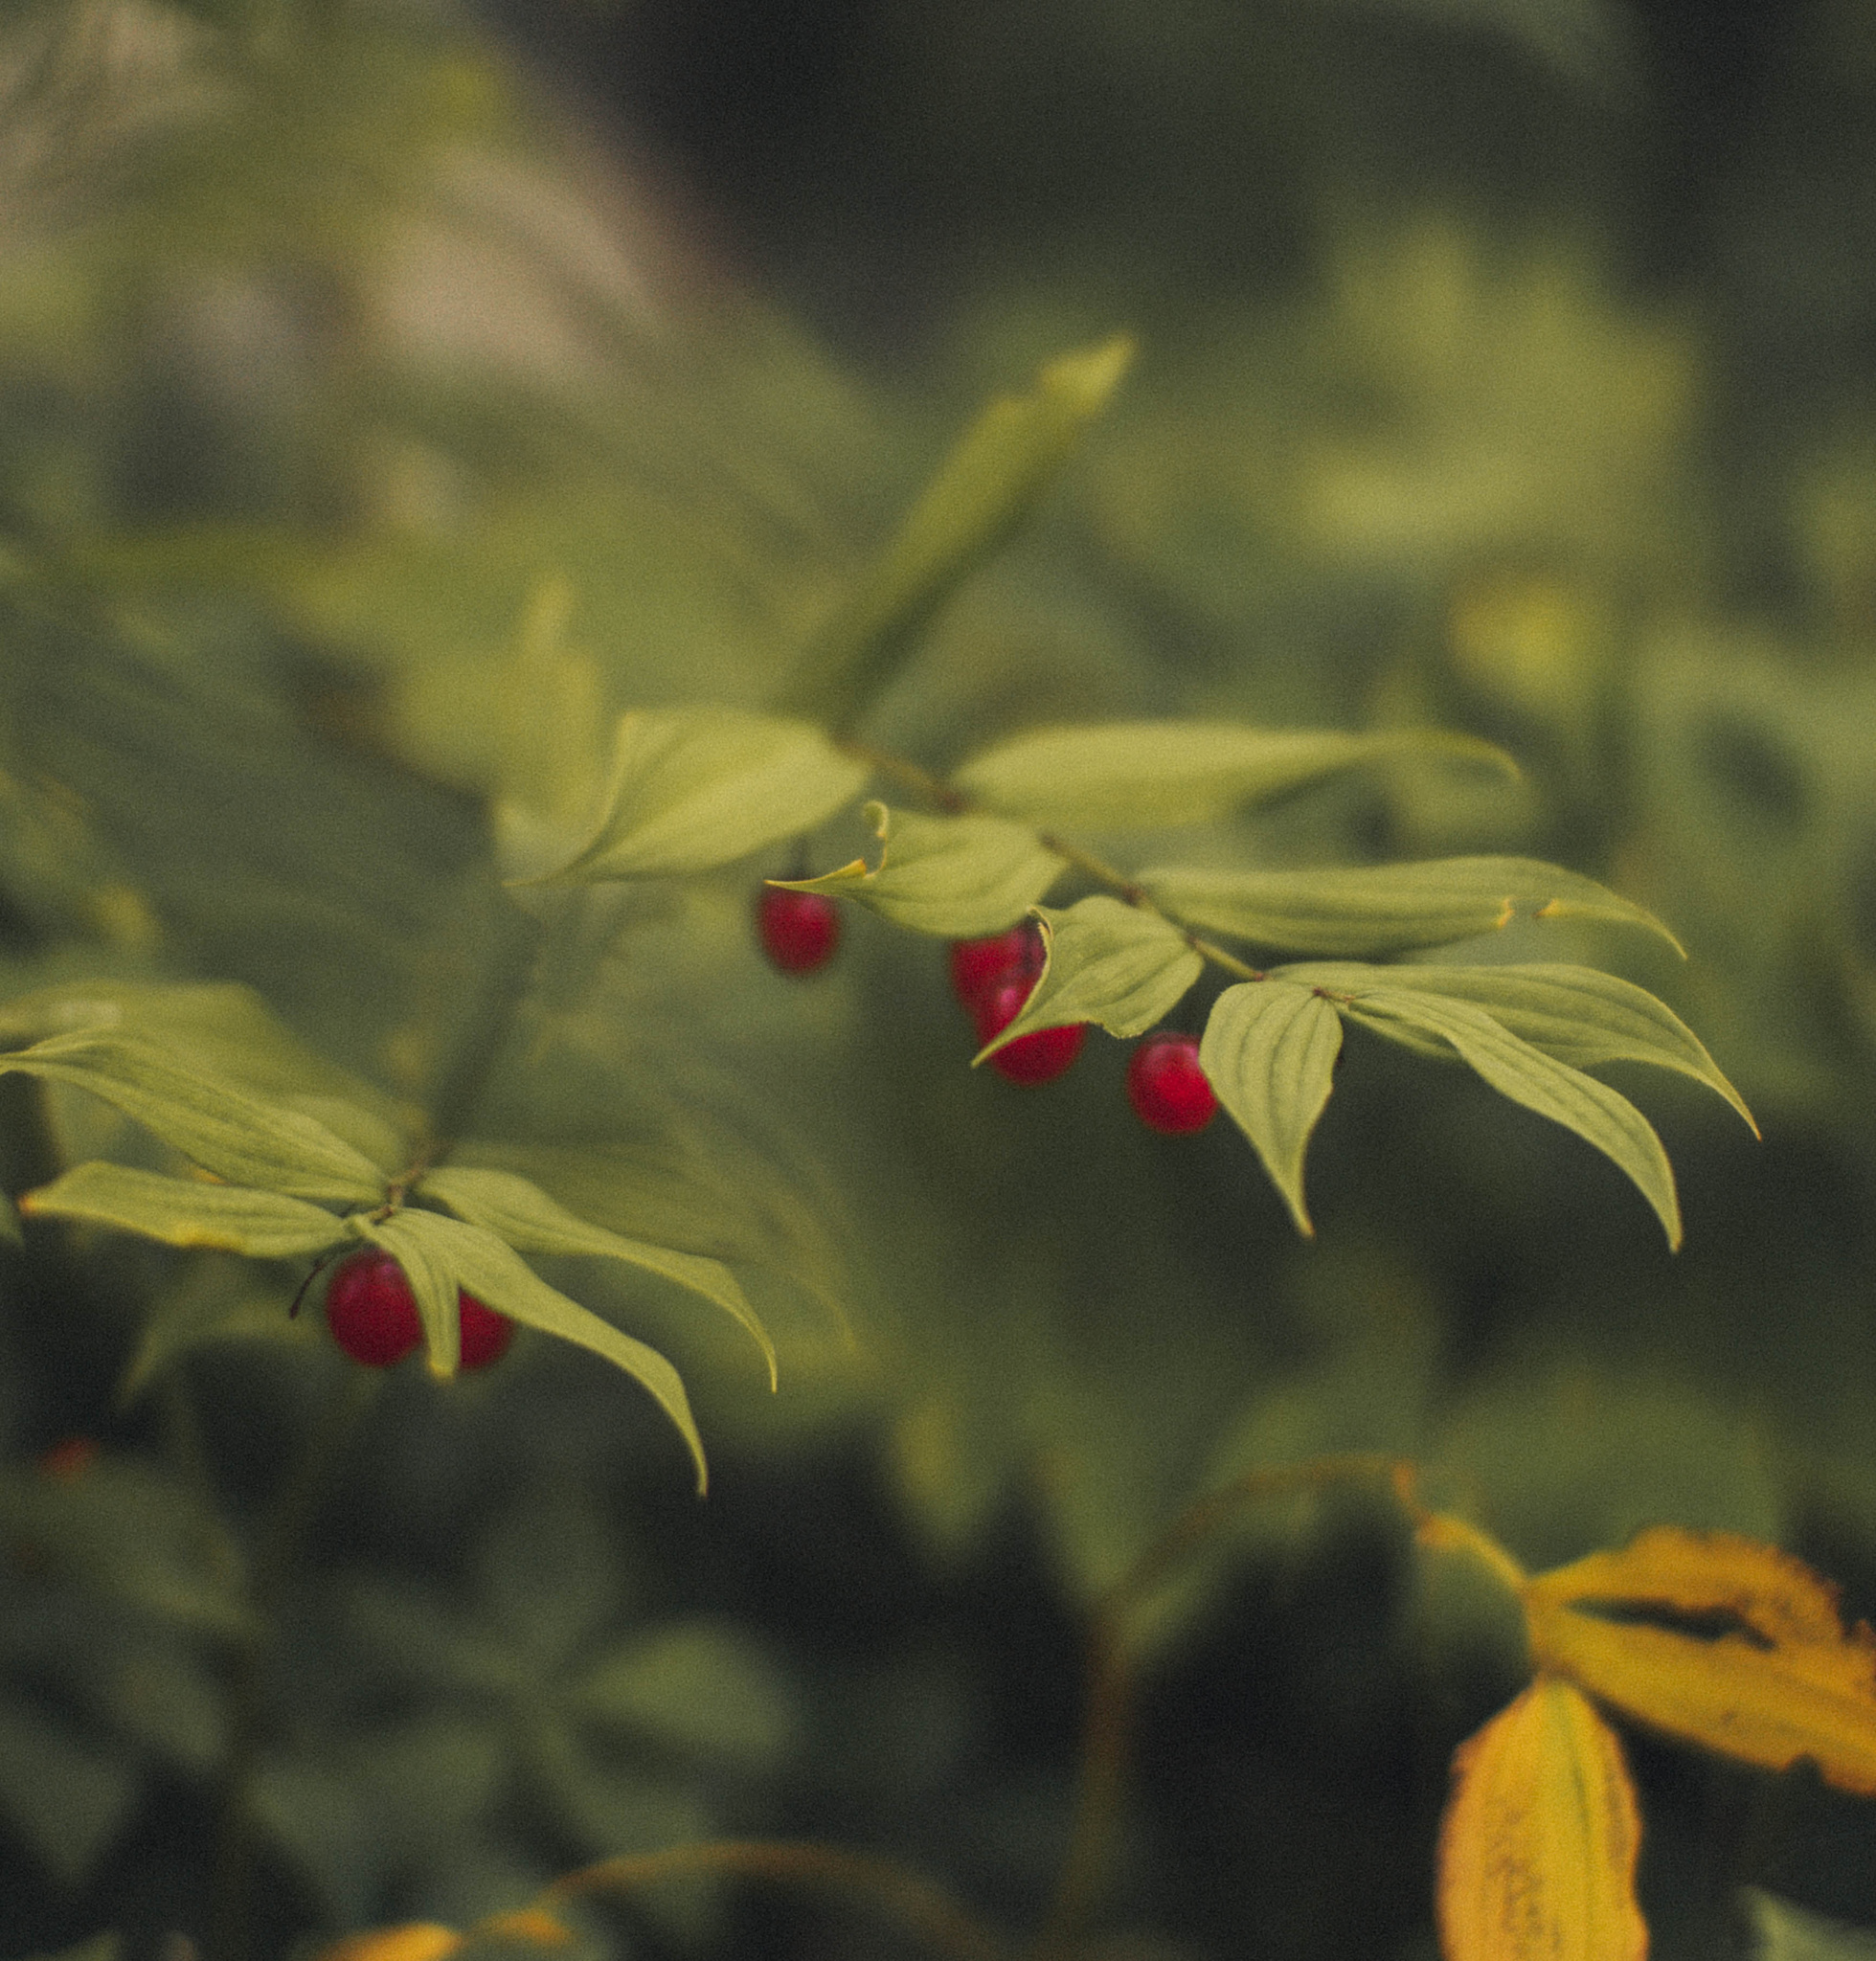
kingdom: Plantae
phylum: Tracheophyta
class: Liliopsida
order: Liliales
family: Liliaceae
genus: Streptopus
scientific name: Streptopus lanceolatus
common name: Rose mandarin
